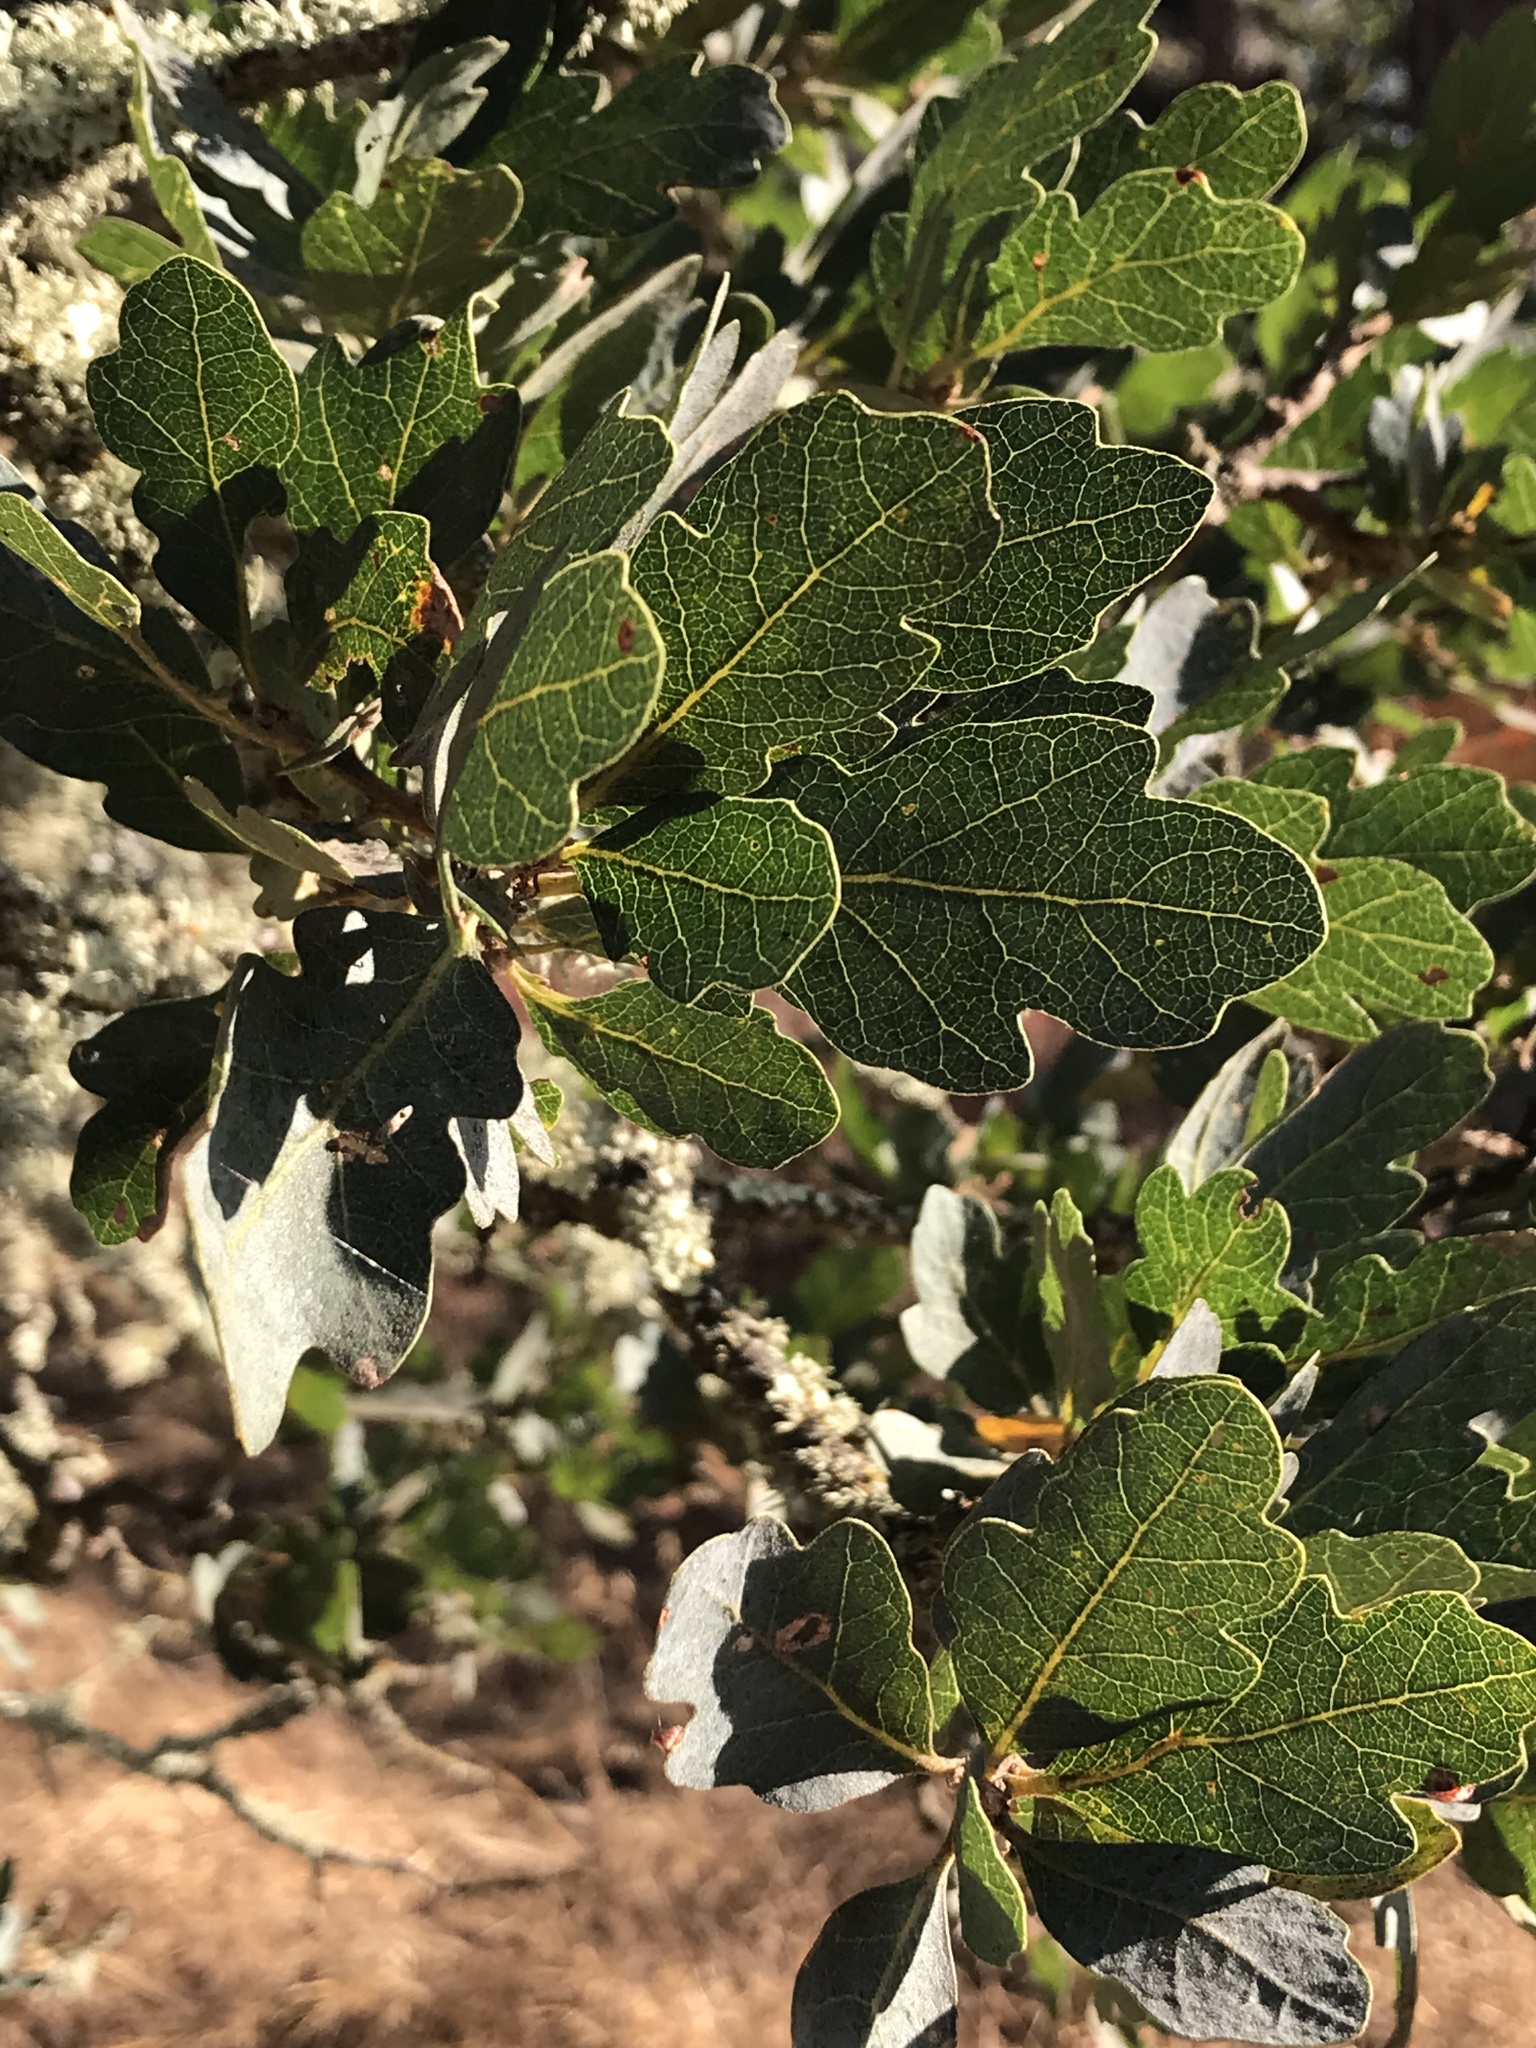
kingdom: Plantae
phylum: Tracheophyta
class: Magnoliopsida
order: Fagales
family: Fagaceae
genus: Quercus
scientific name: Quercus douglasii
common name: Blue oak
